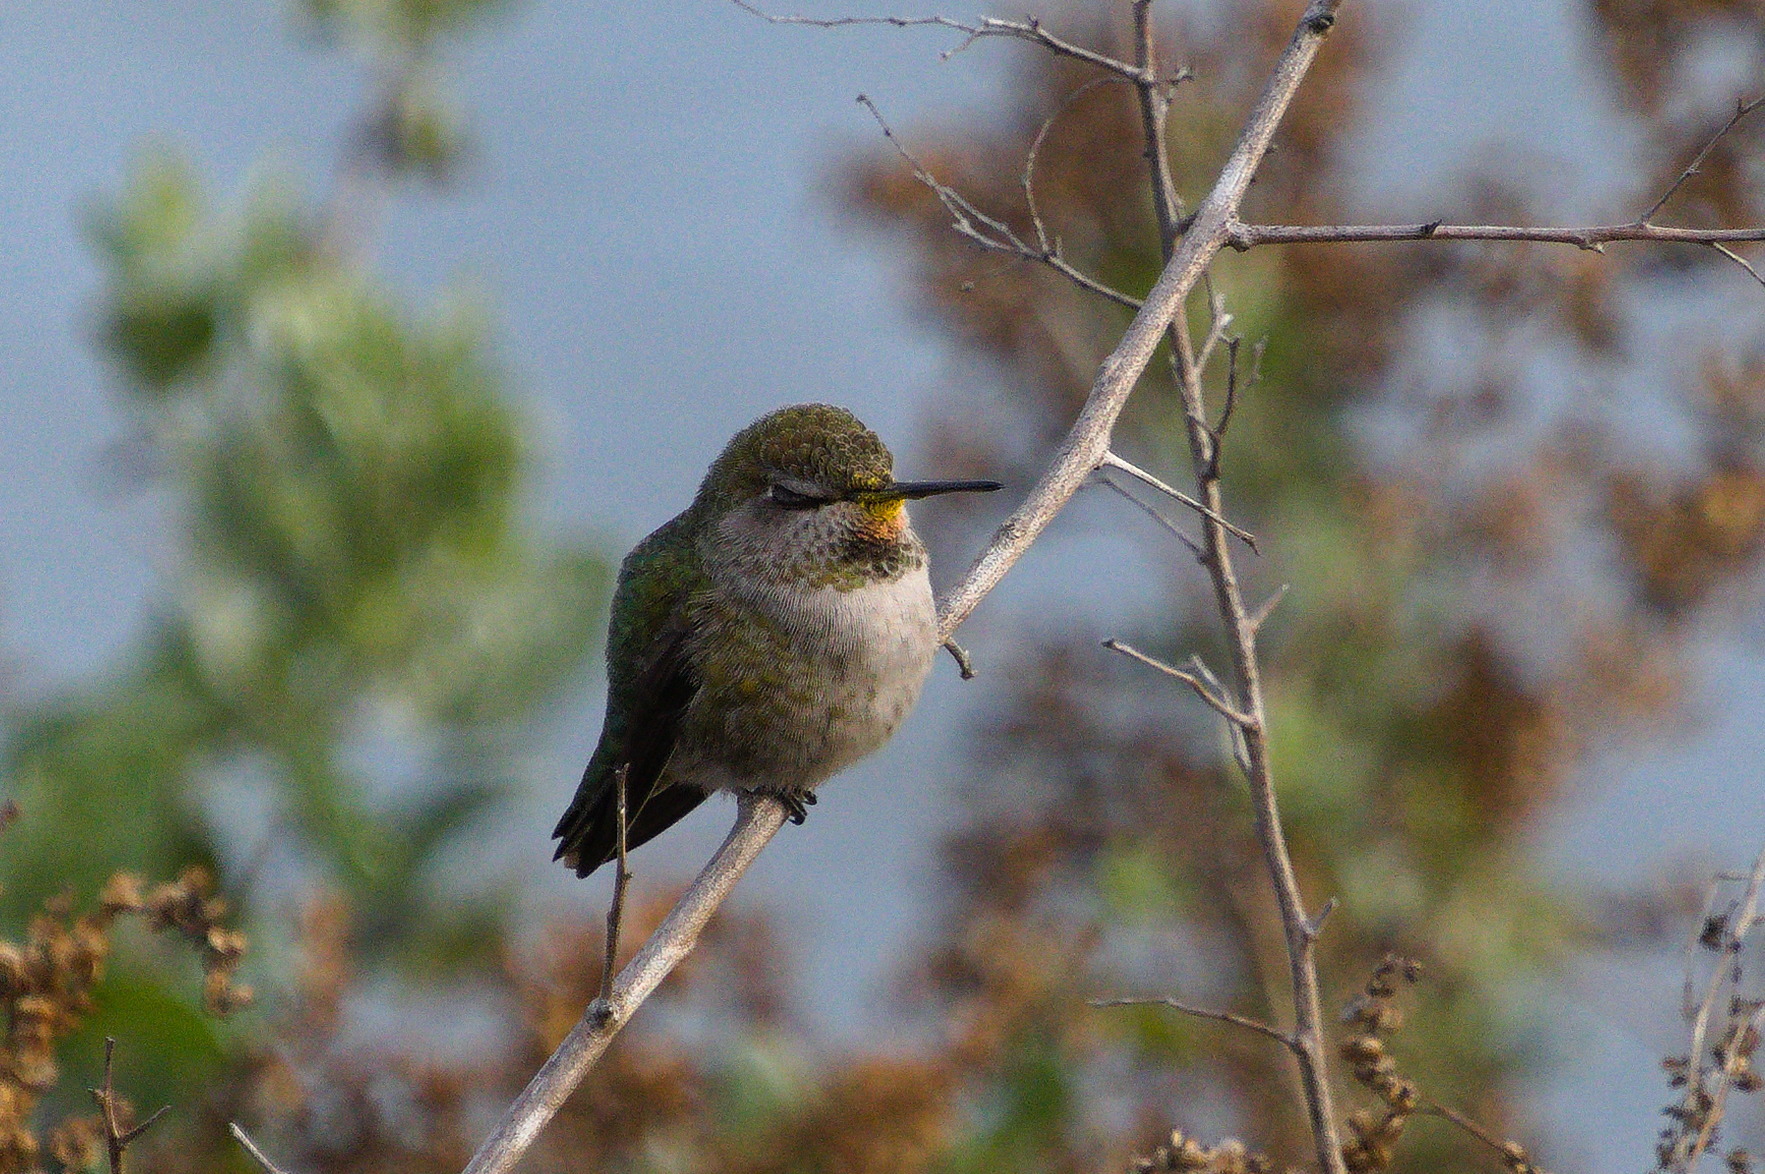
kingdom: Animalia
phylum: Chordata
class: Aves
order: Apodiformes
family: Trochilidae
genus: Calypte
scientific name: Calypte anna
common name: Anna's hummingbird
